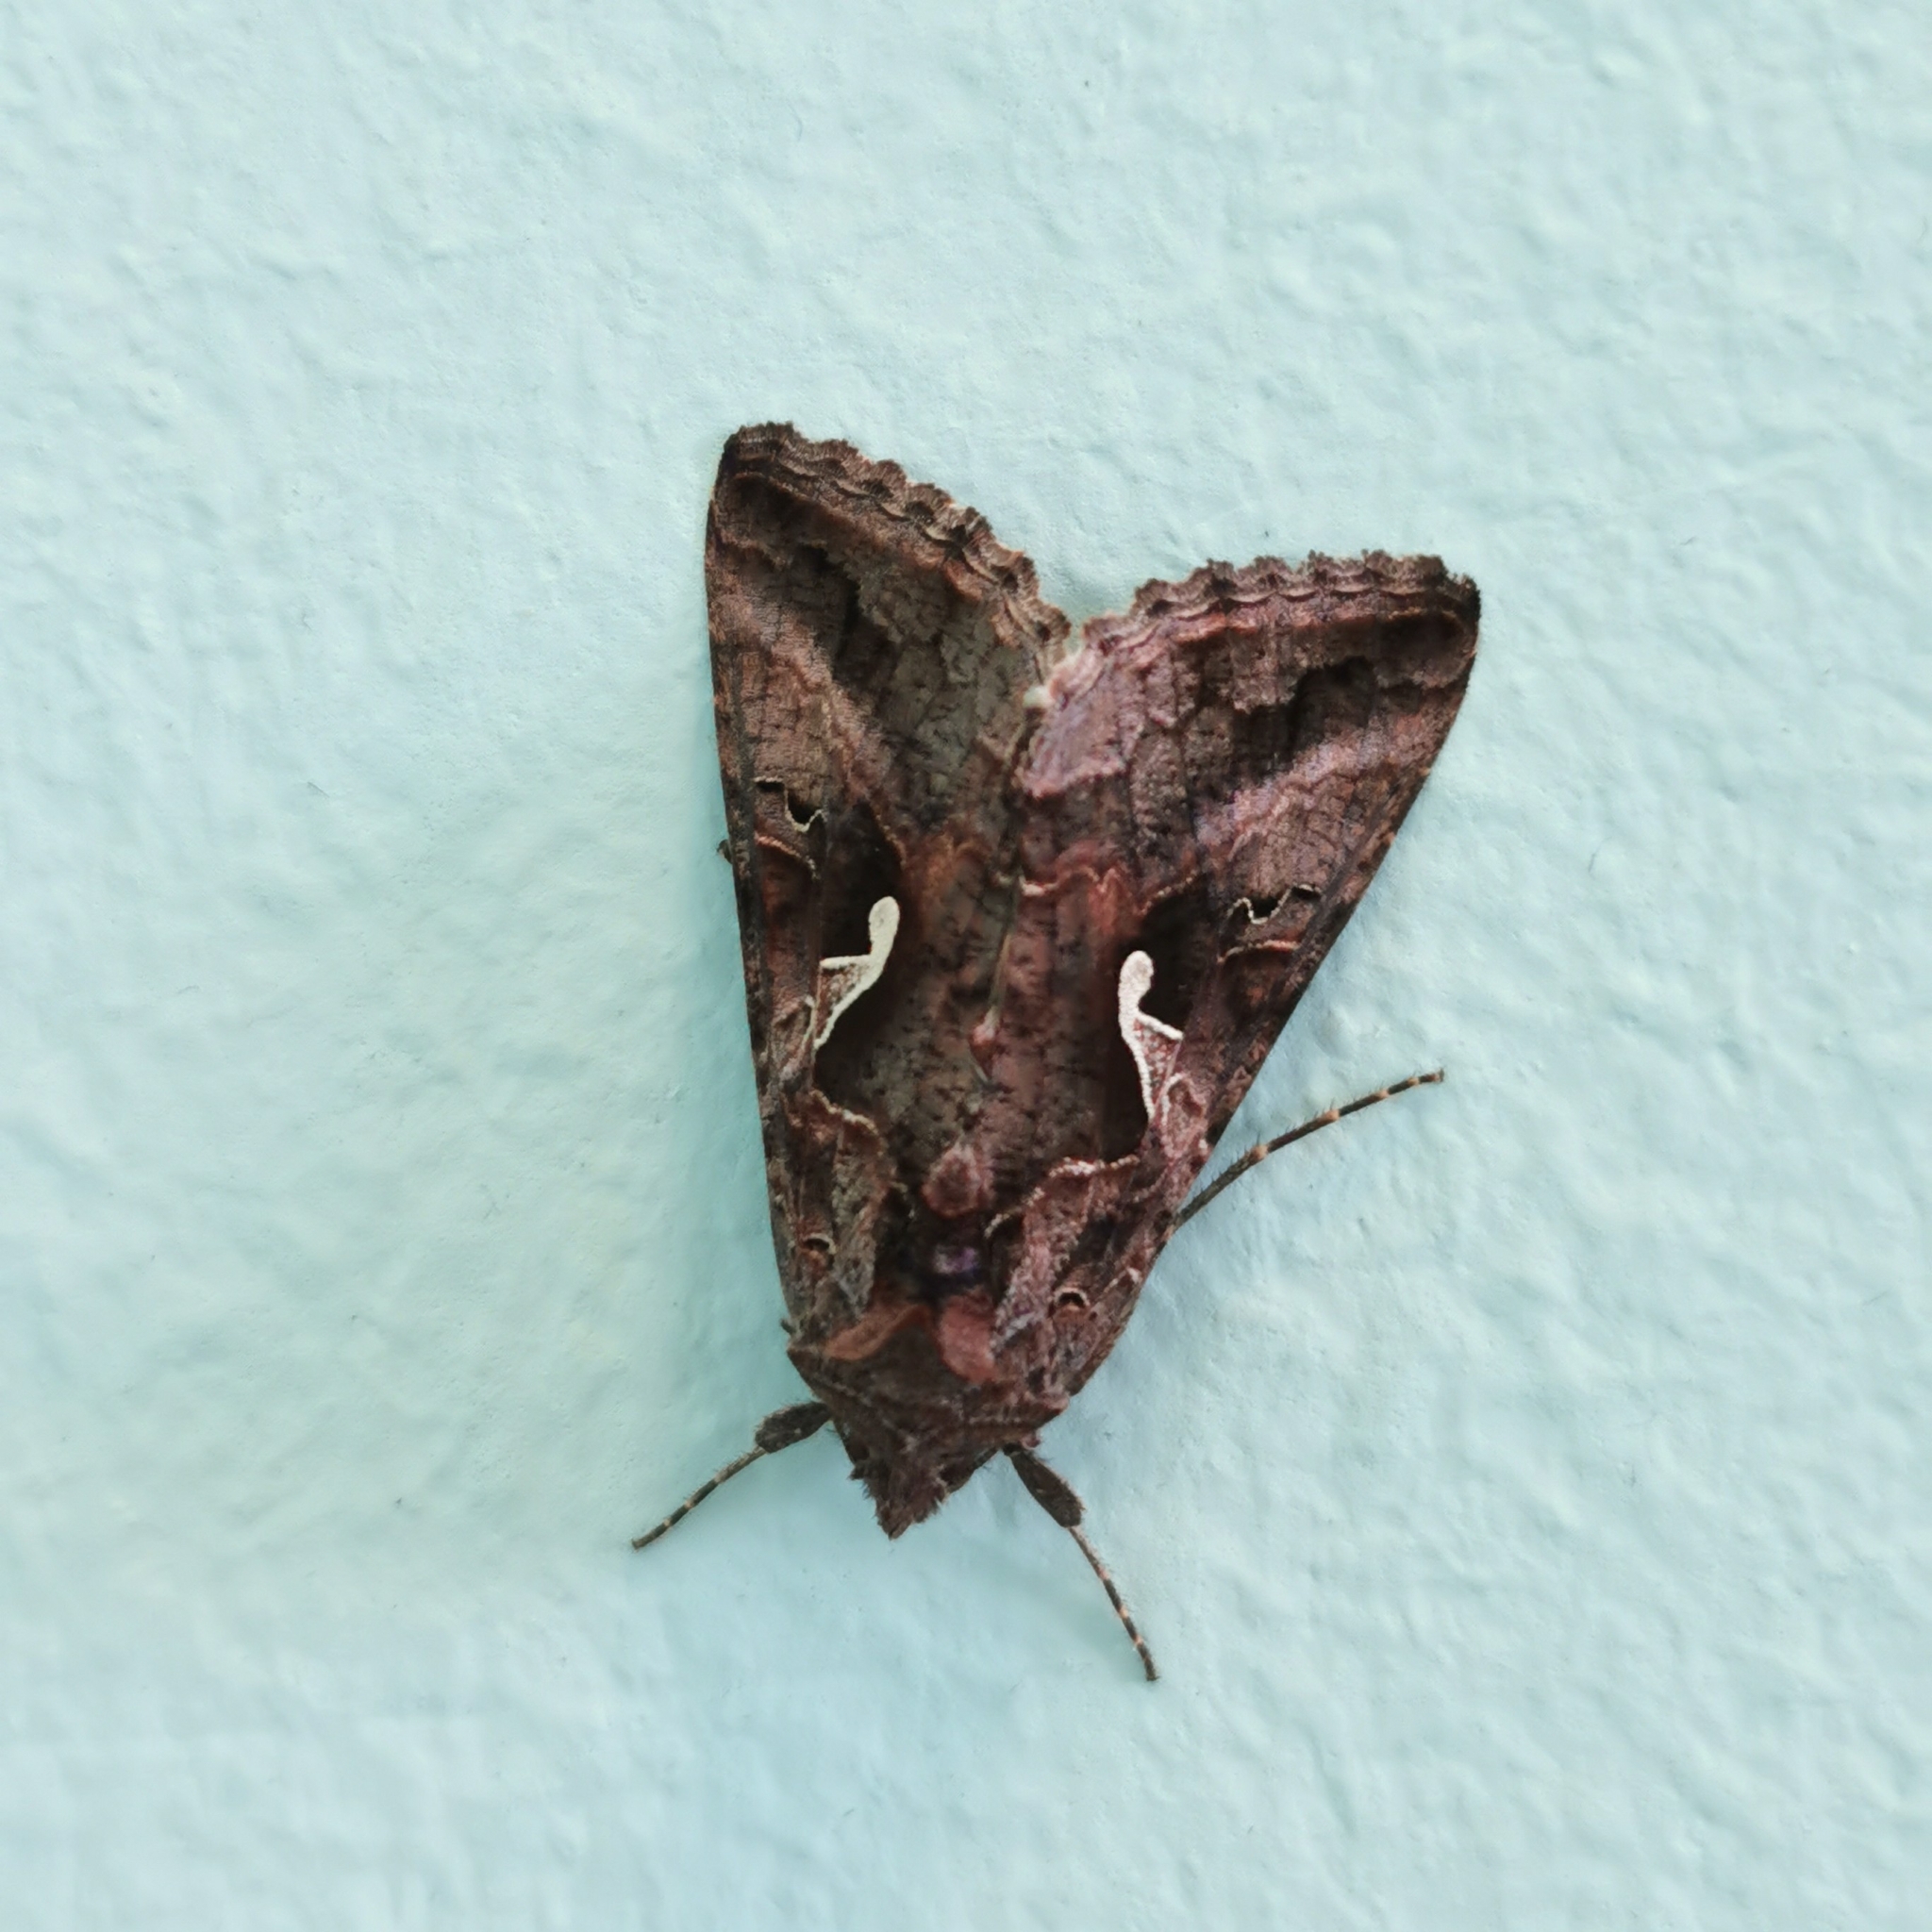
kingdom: Animalia
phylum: Arthropoda
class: Insecta
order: Lepidoptera
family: Noctuidae
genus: Autographa
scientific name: Autographa gamma
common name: Silver y
